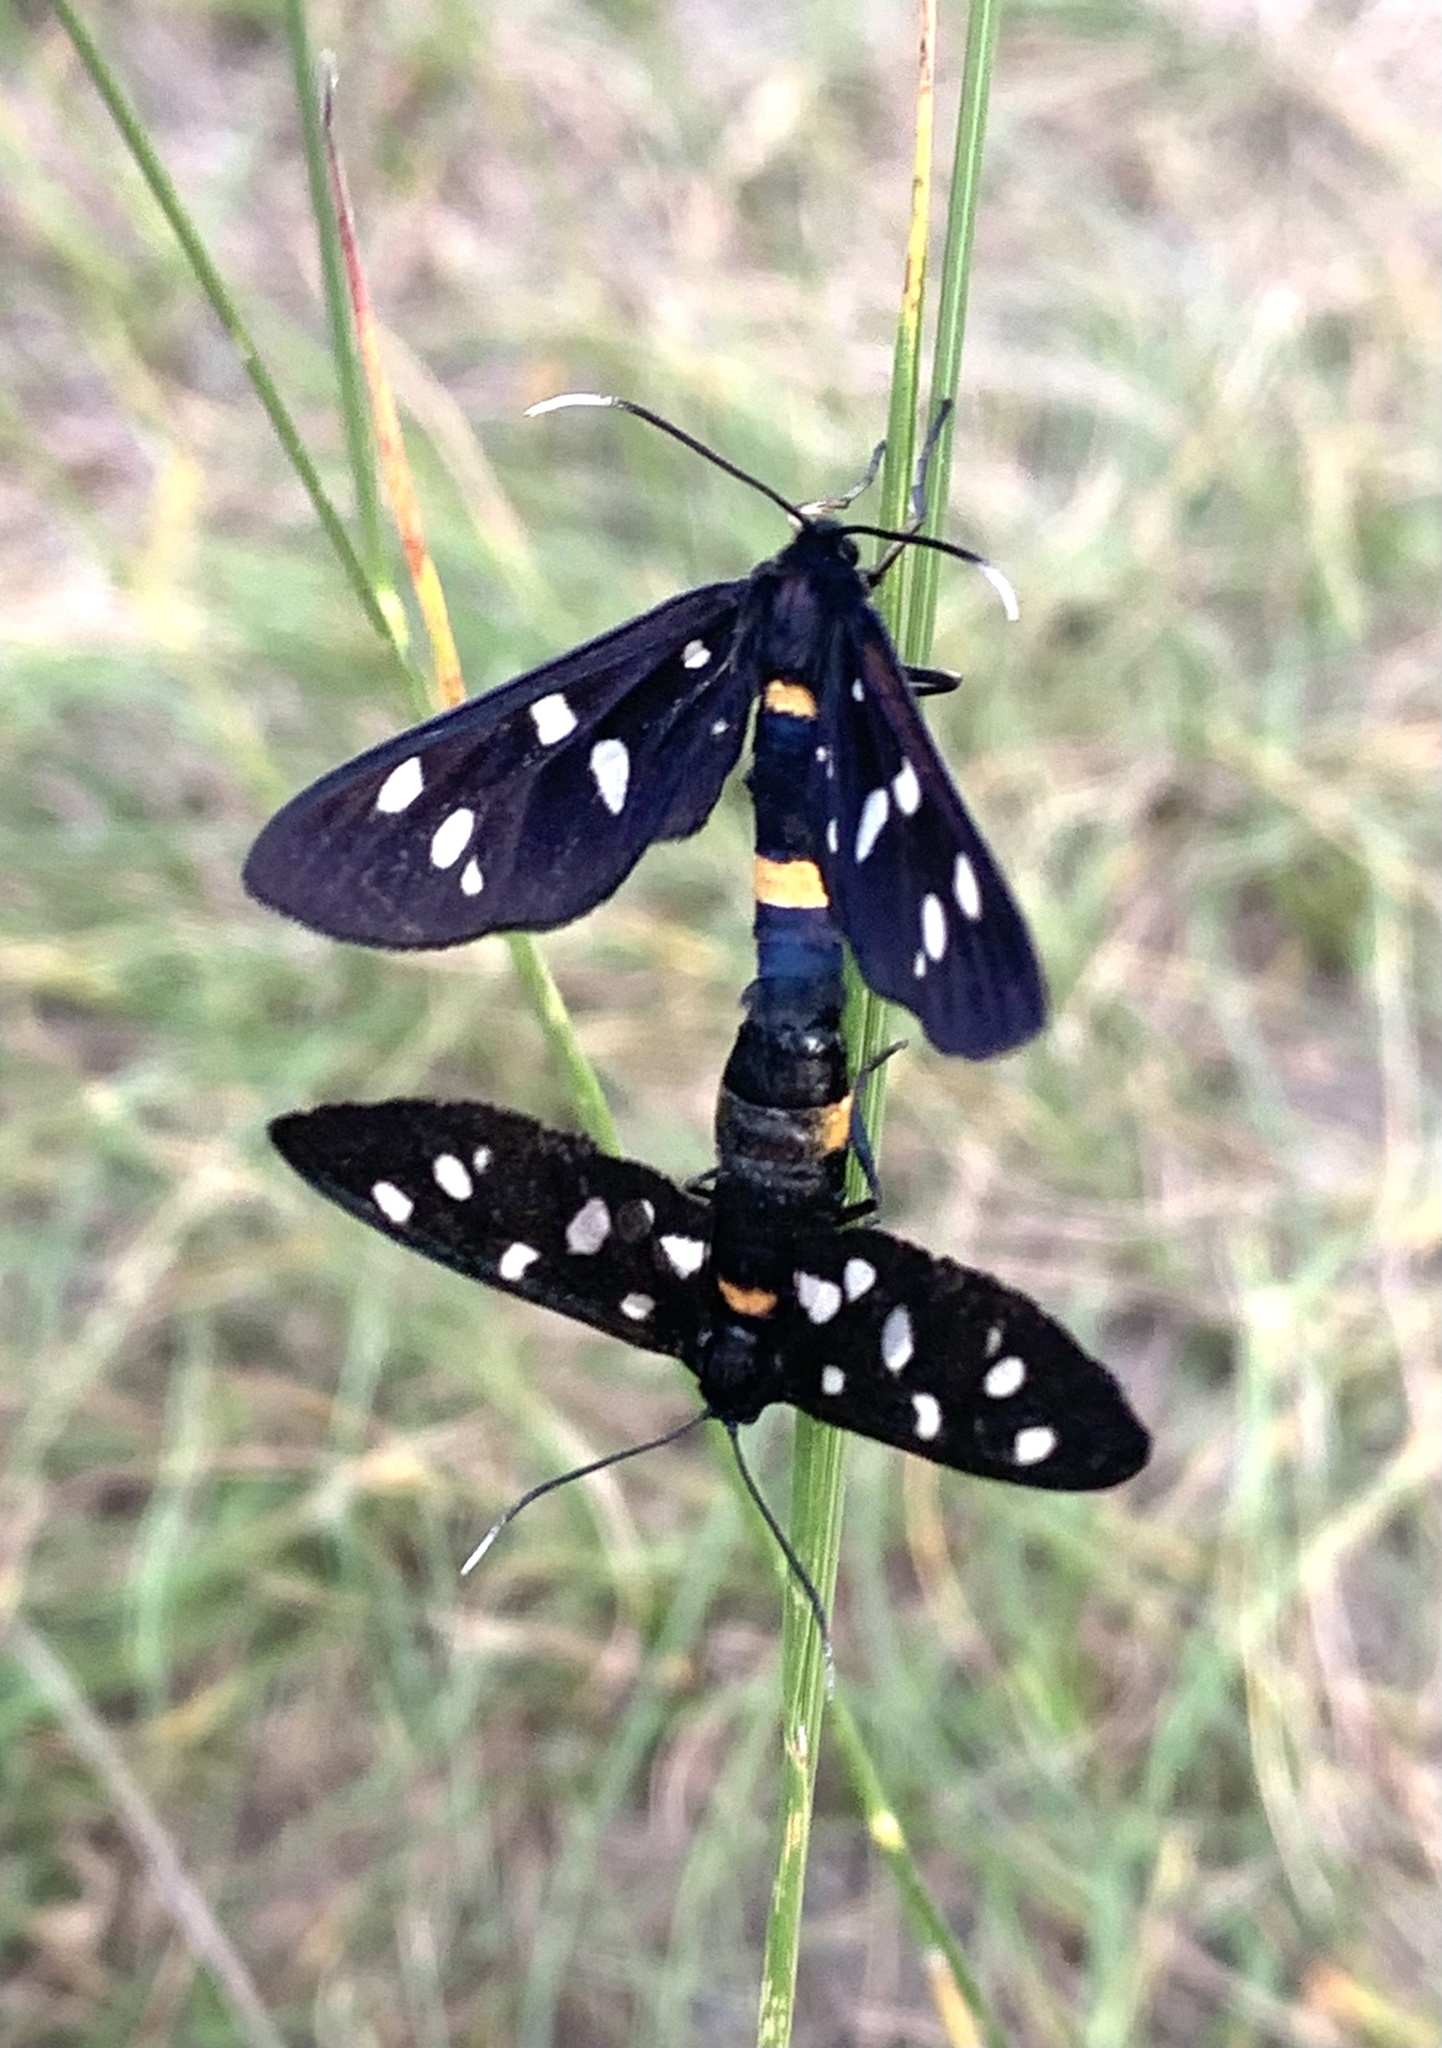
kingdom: Animalia
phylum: Arthropoda
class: Insecta
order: Lepidoptera
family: Erebidae
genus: Amata
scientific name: Amata phegea
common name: Nine-spotted
